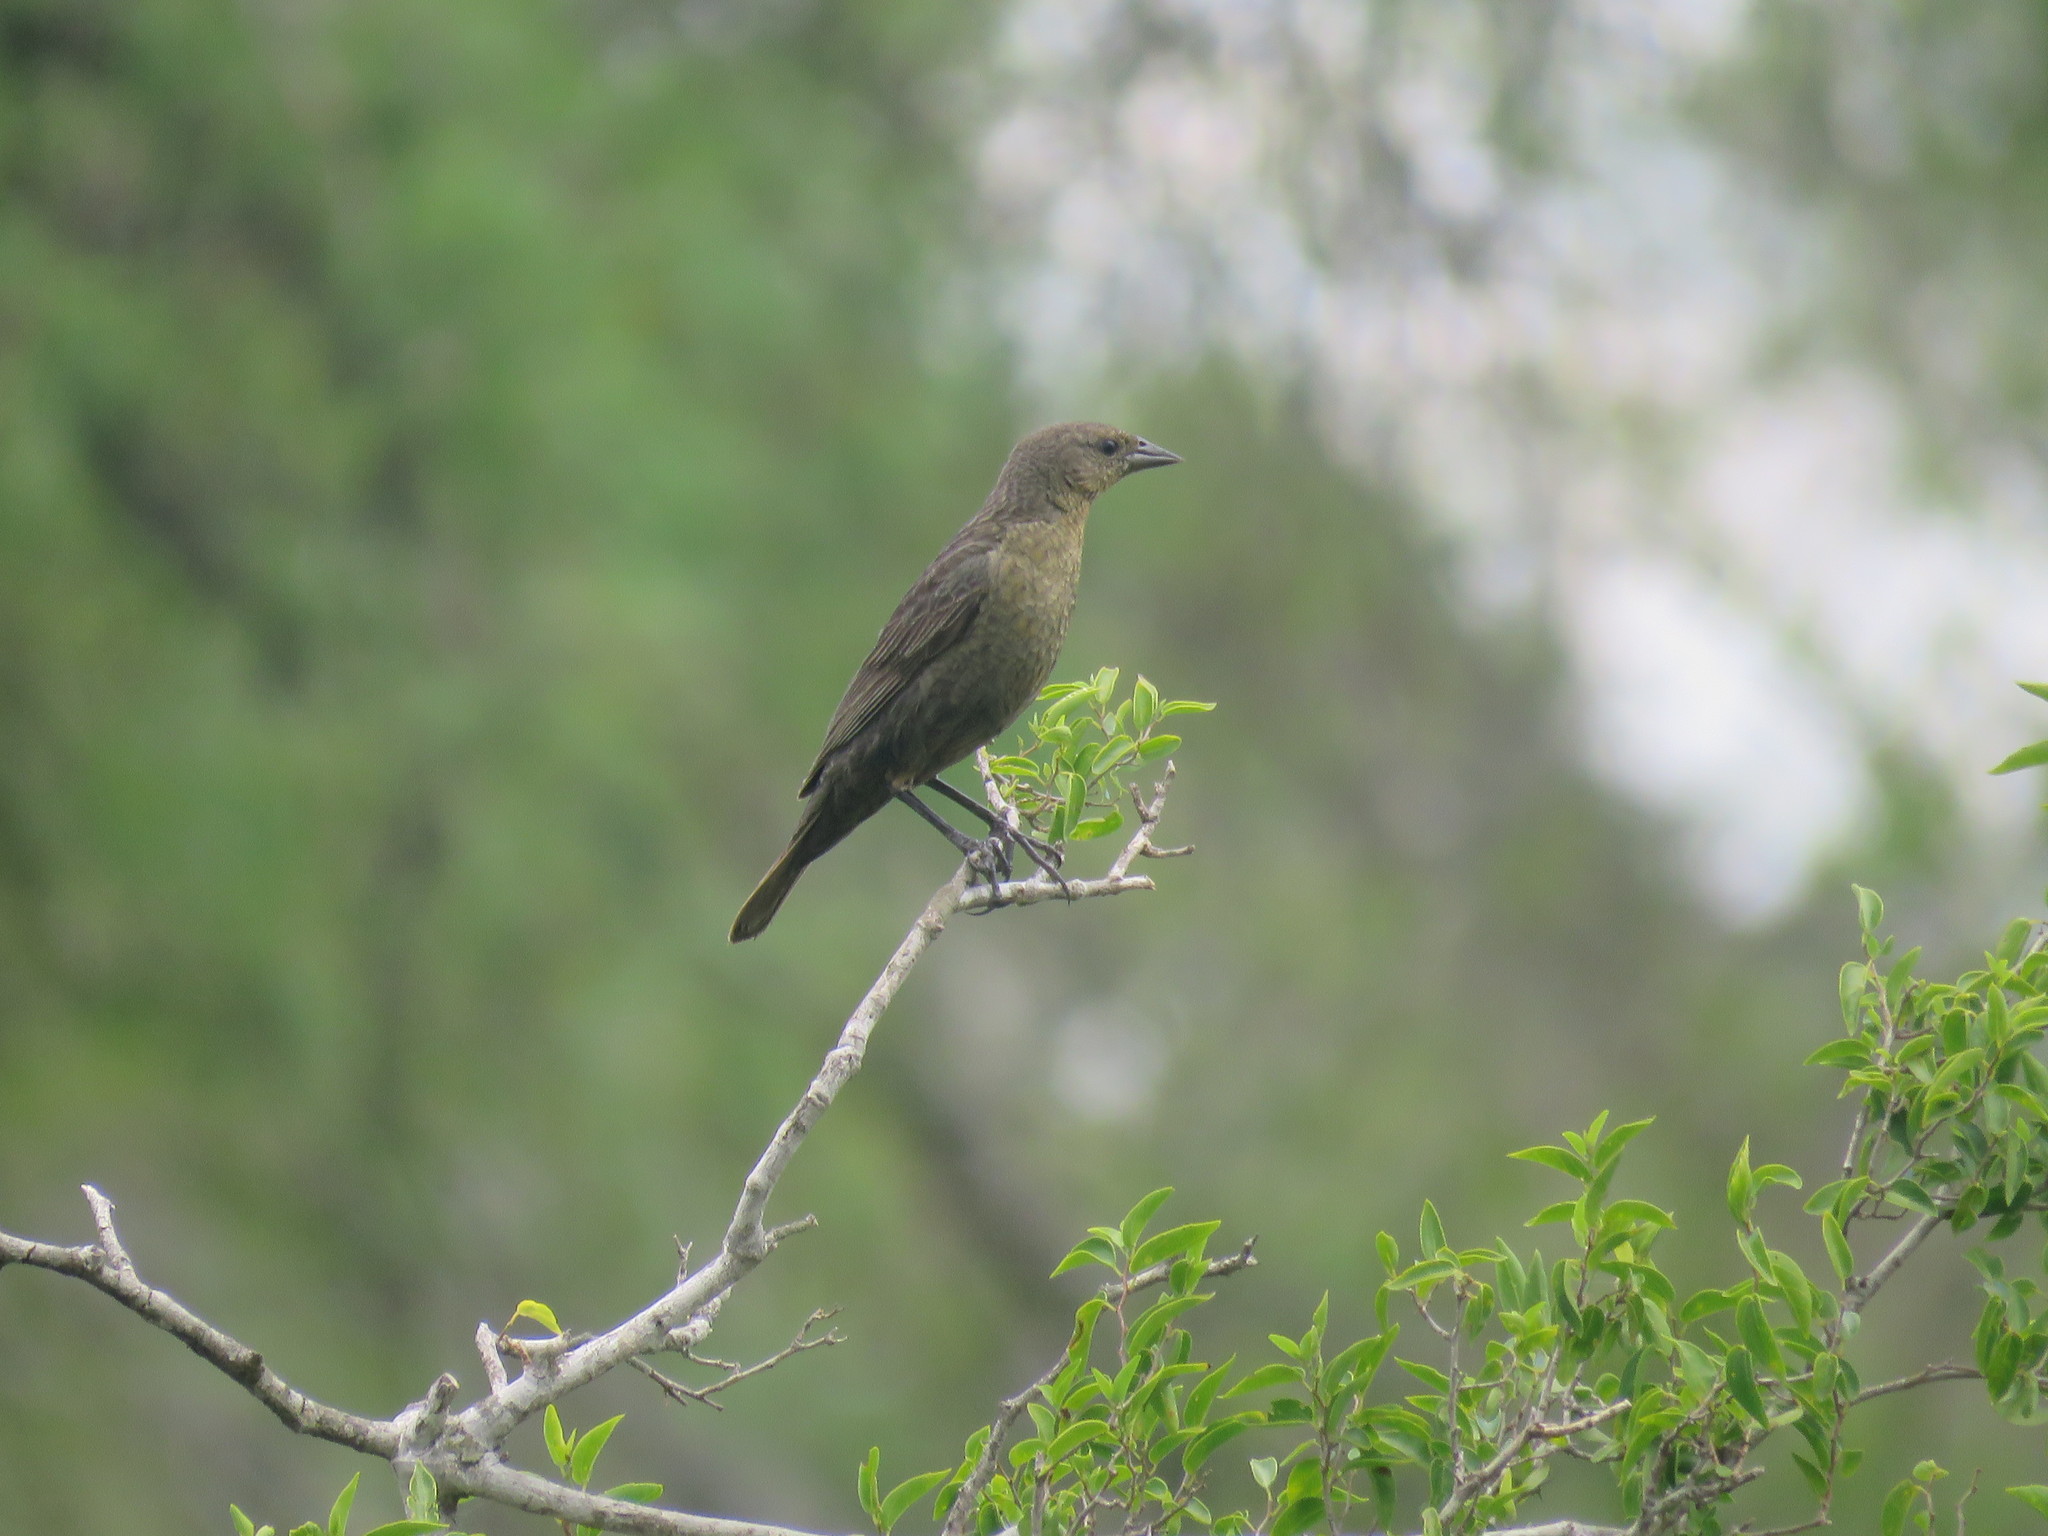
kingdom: Animalia
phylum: Chordata
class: Aves
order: Passeriformes
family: Icteridae
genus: Chrysomus
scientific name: Chrysomus ruficapillus
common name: Chestnut-capped blackbird
